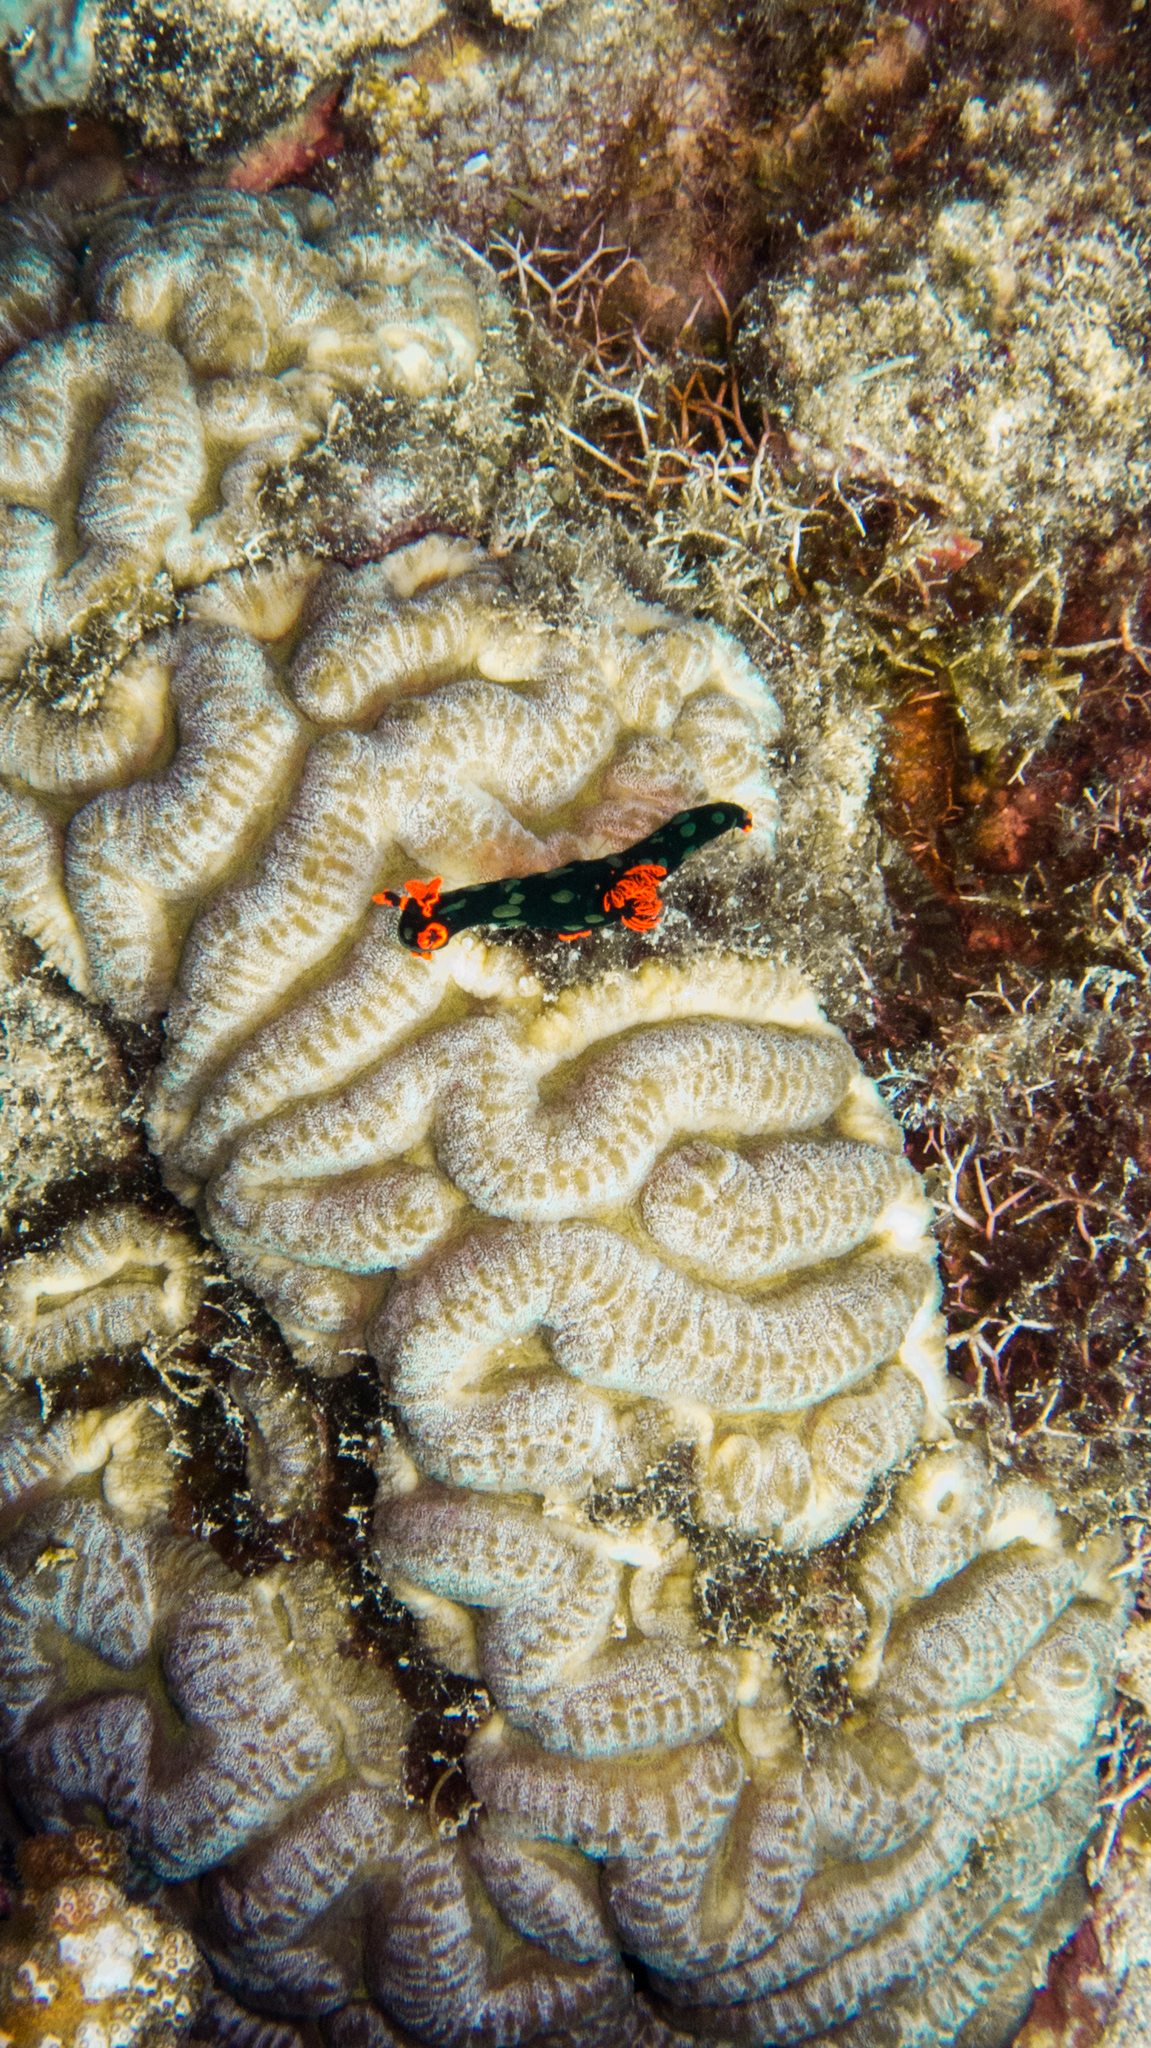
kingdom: Animalia
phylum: Mollusca
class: Gastropoda
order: Nudibranchia
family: Polyceridae
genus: Nembrotha
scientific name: Nembrotha kubaryana
